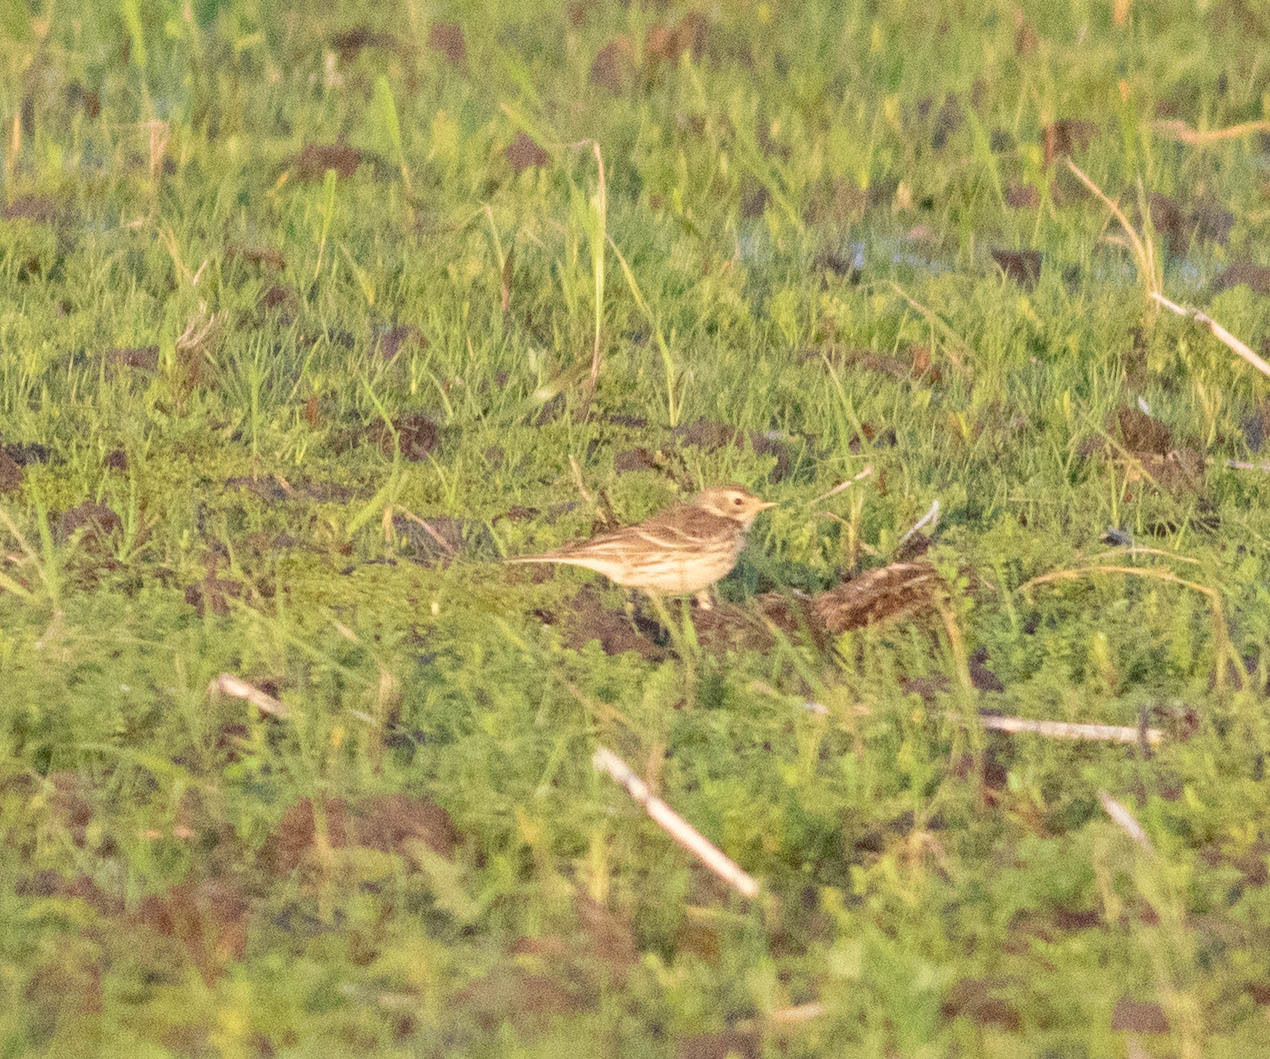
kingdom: Animalia
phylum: Chordata
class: Aves
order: Passeriformes
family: Motacillidae
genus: Anthus
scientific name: Anthus rubescens
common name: Buff-bellied pipit
